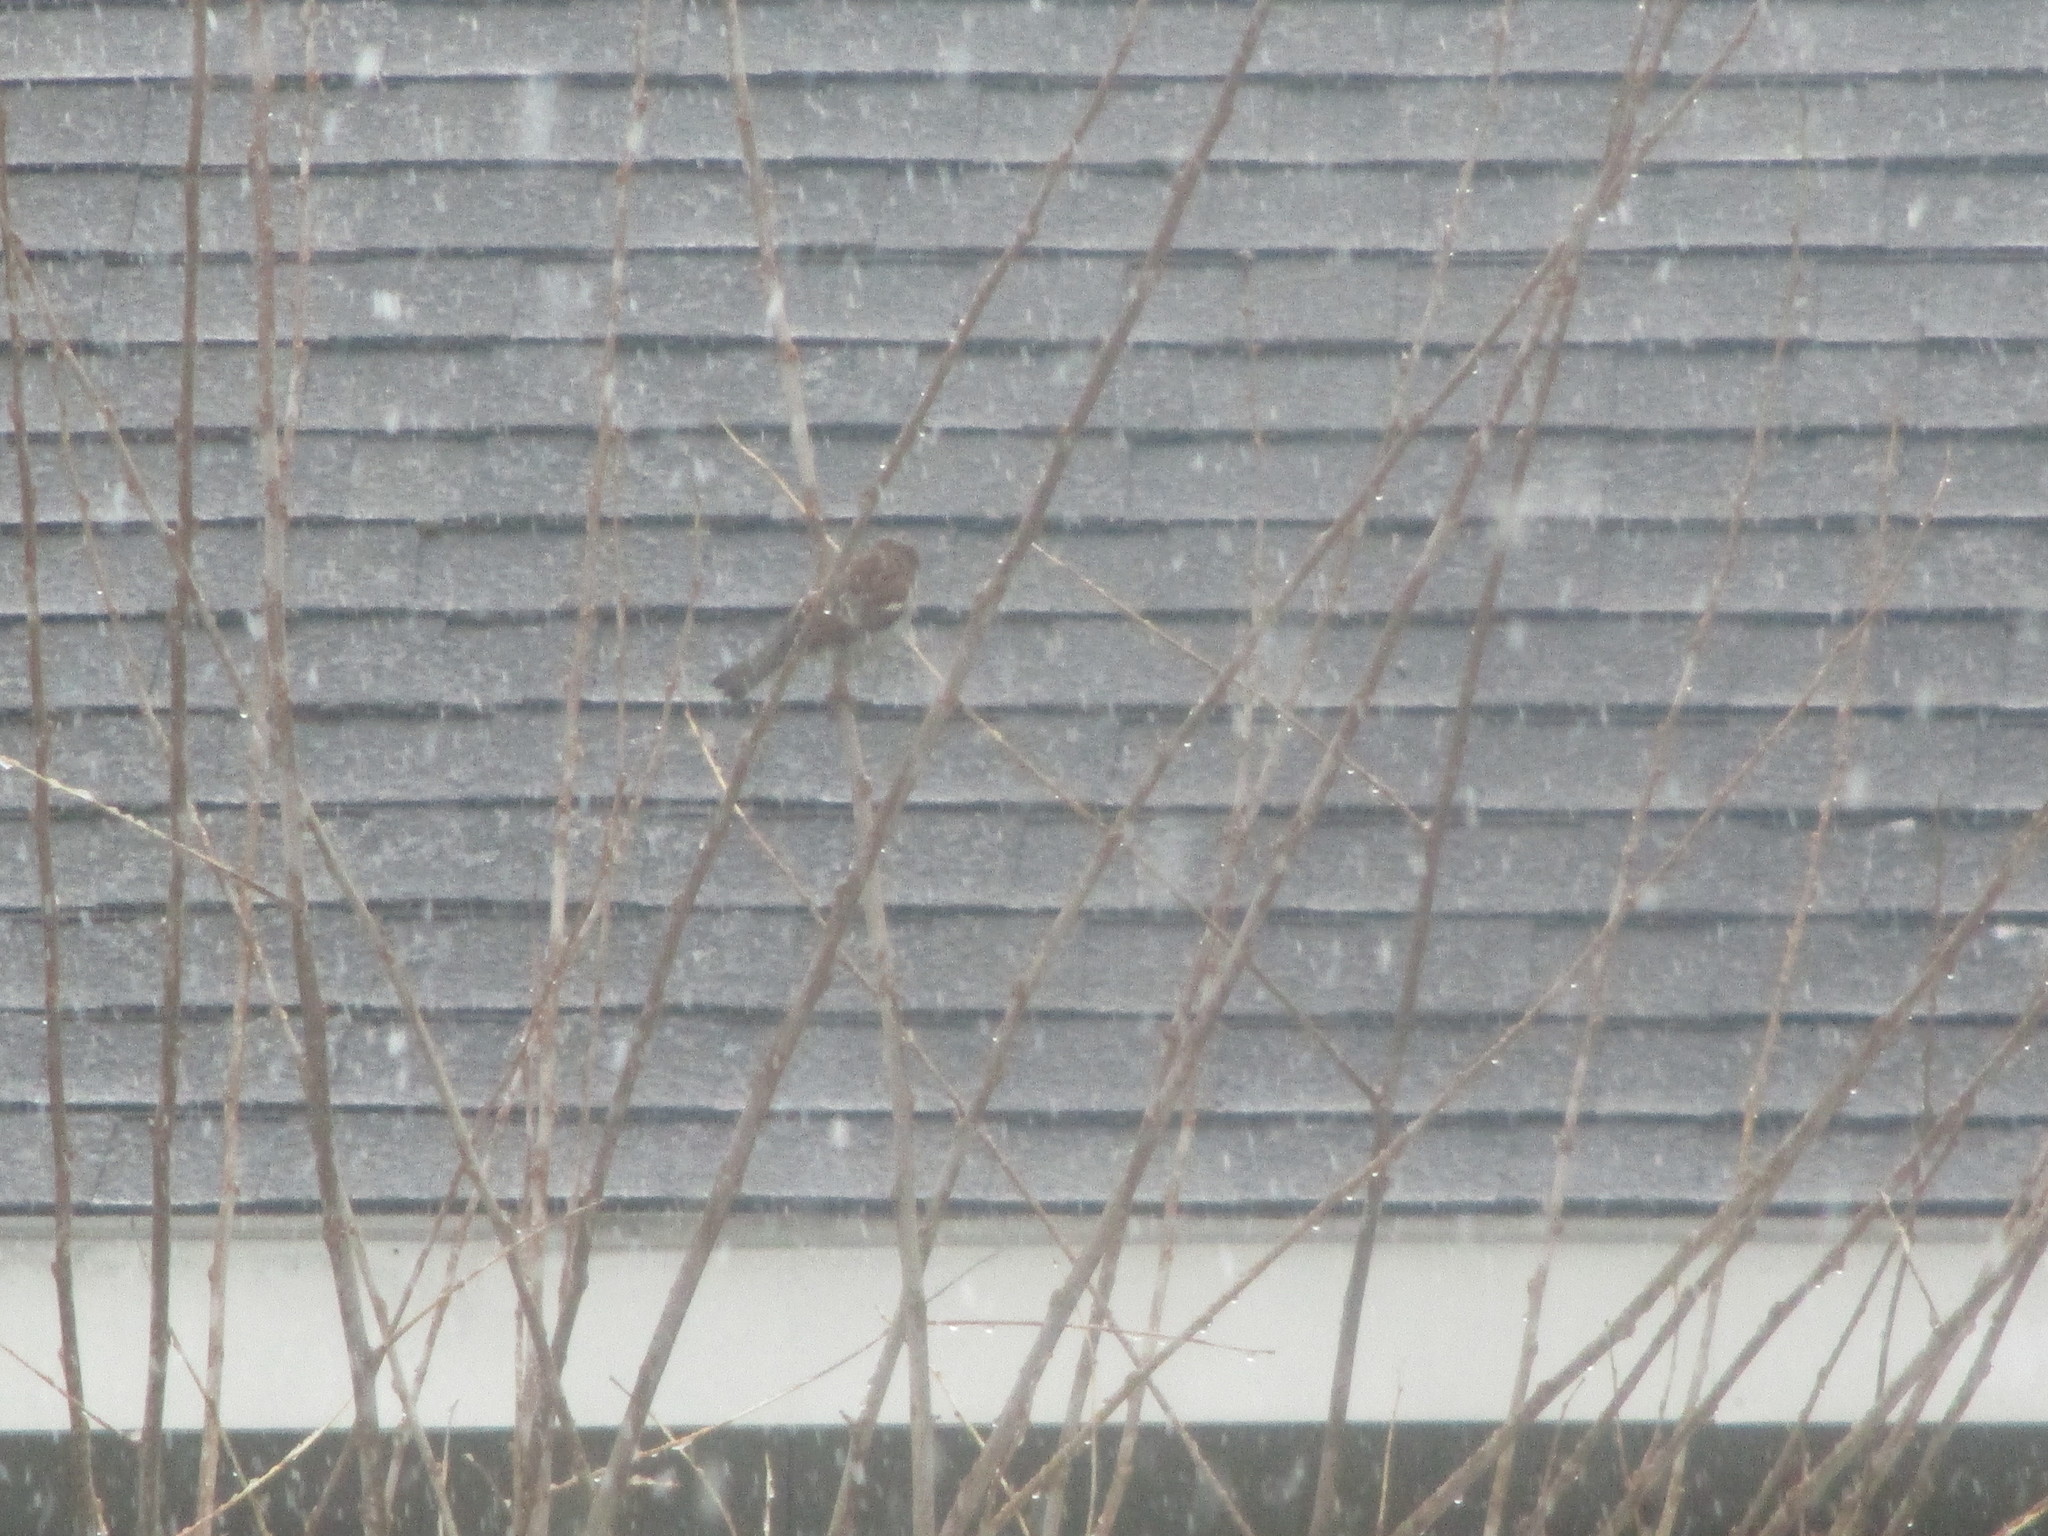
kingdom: Animalia
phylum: Chordata
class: Aves
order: Passeriformes
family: Passeridae
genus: Passer
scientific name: Passer domesticus
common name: House sparrow
